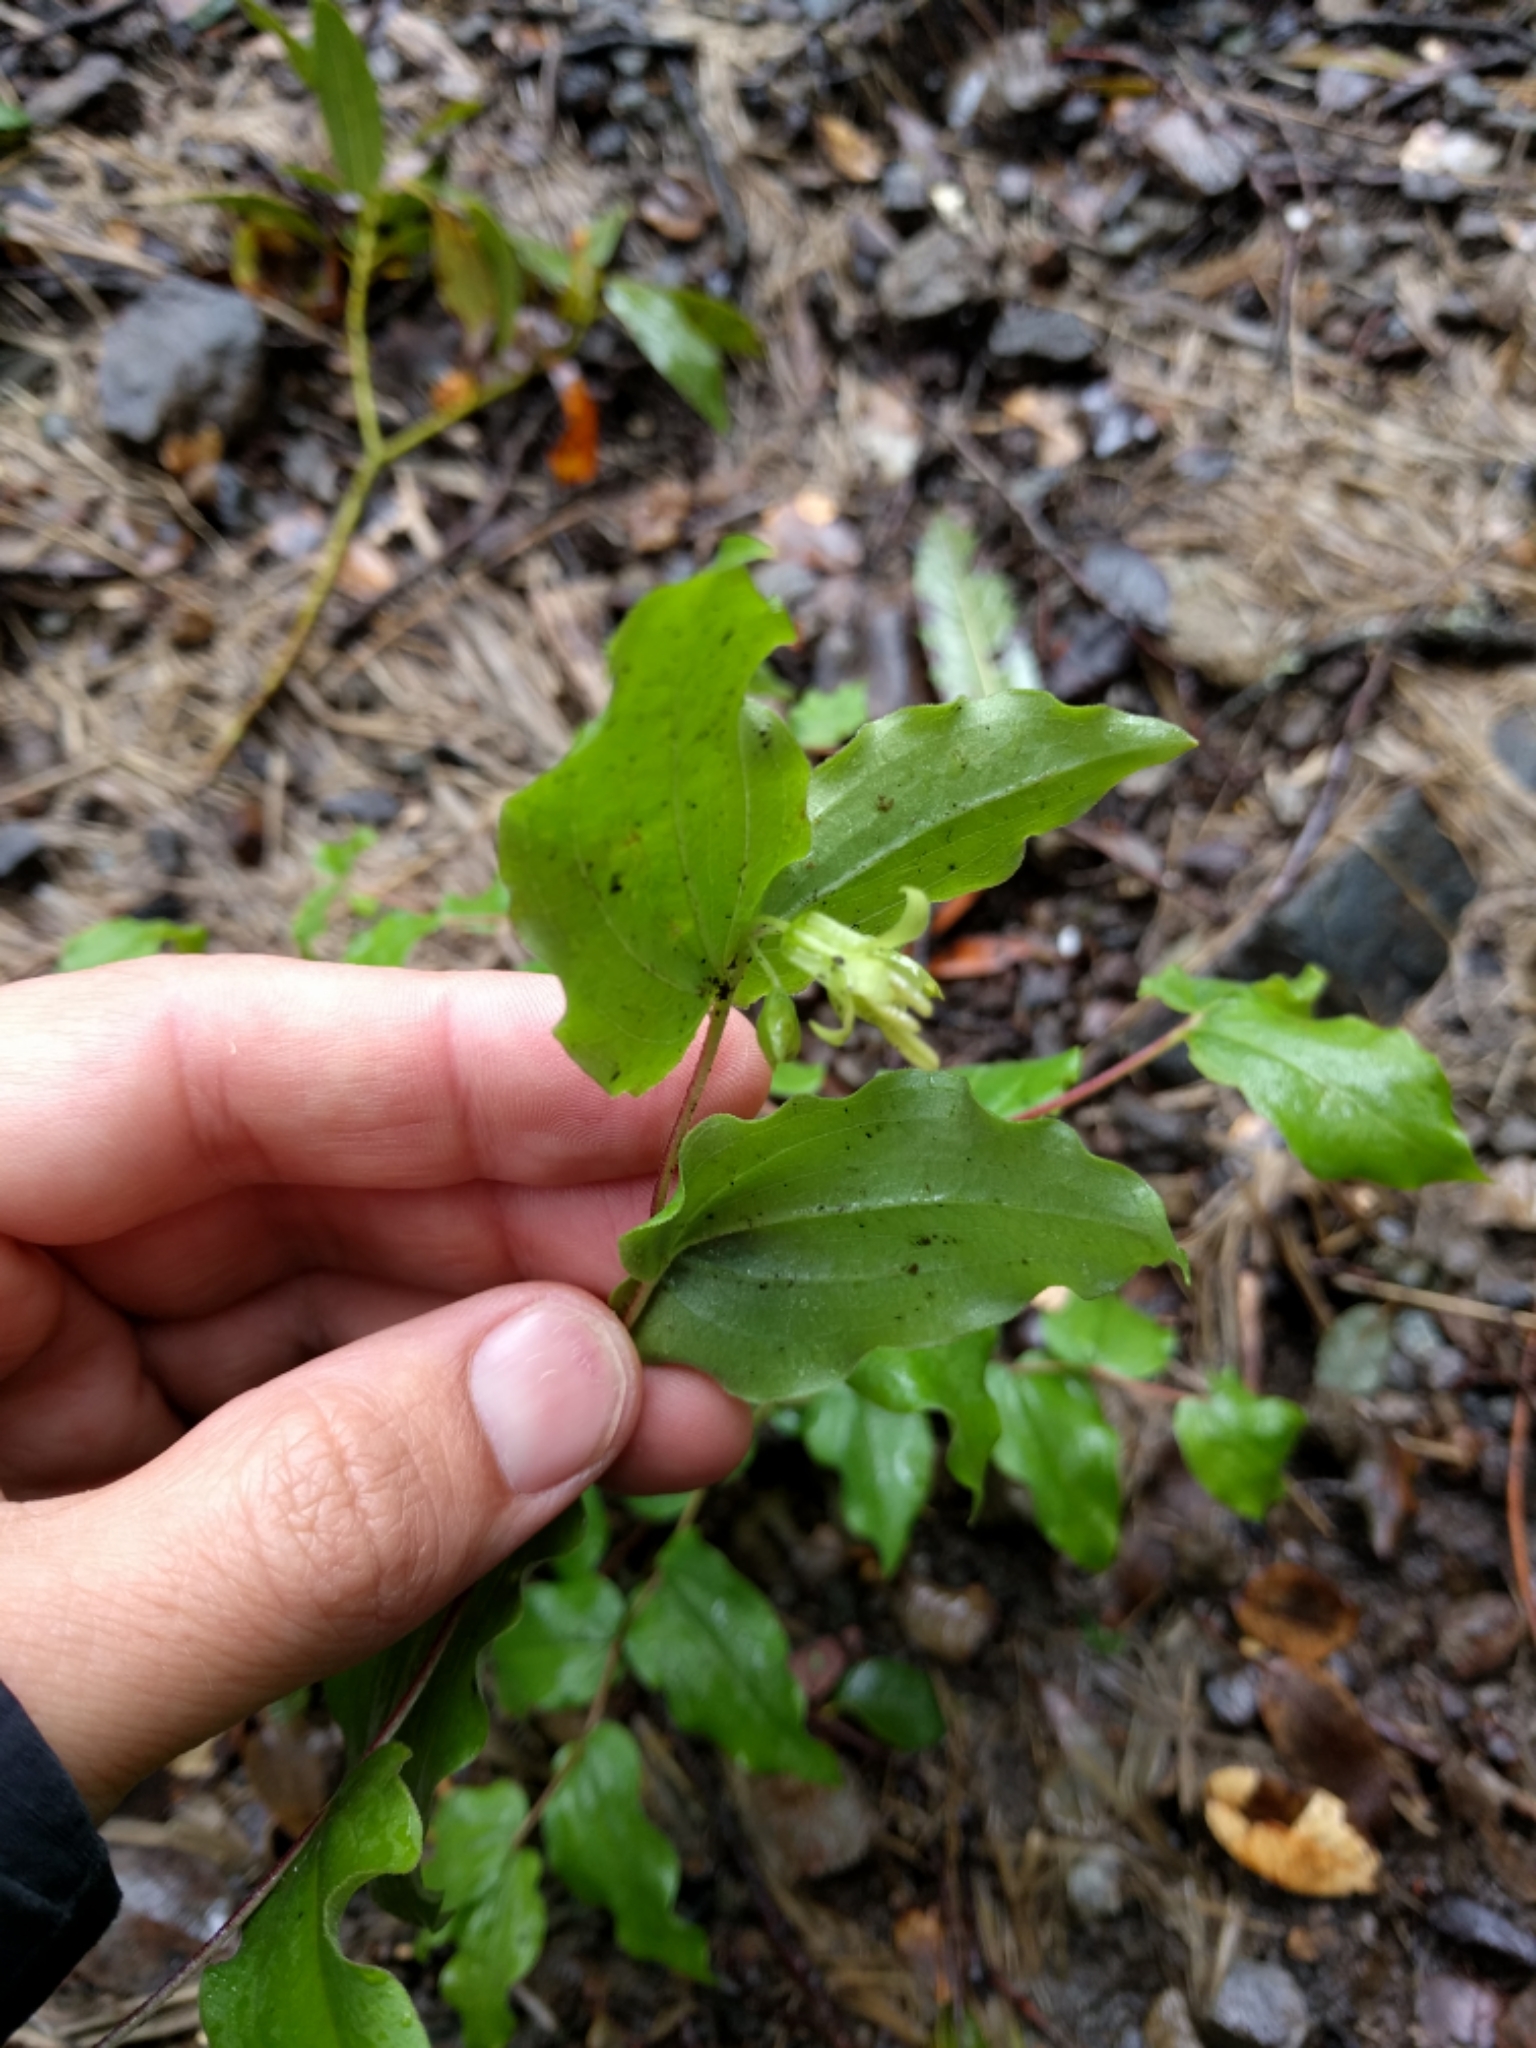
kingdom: Plantae
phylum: Tracheophyta
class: Liliopsida
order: Liliales
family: Liliaceae
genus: Prosartes
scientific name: Prosartes hookeri
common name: Fairy-bells
